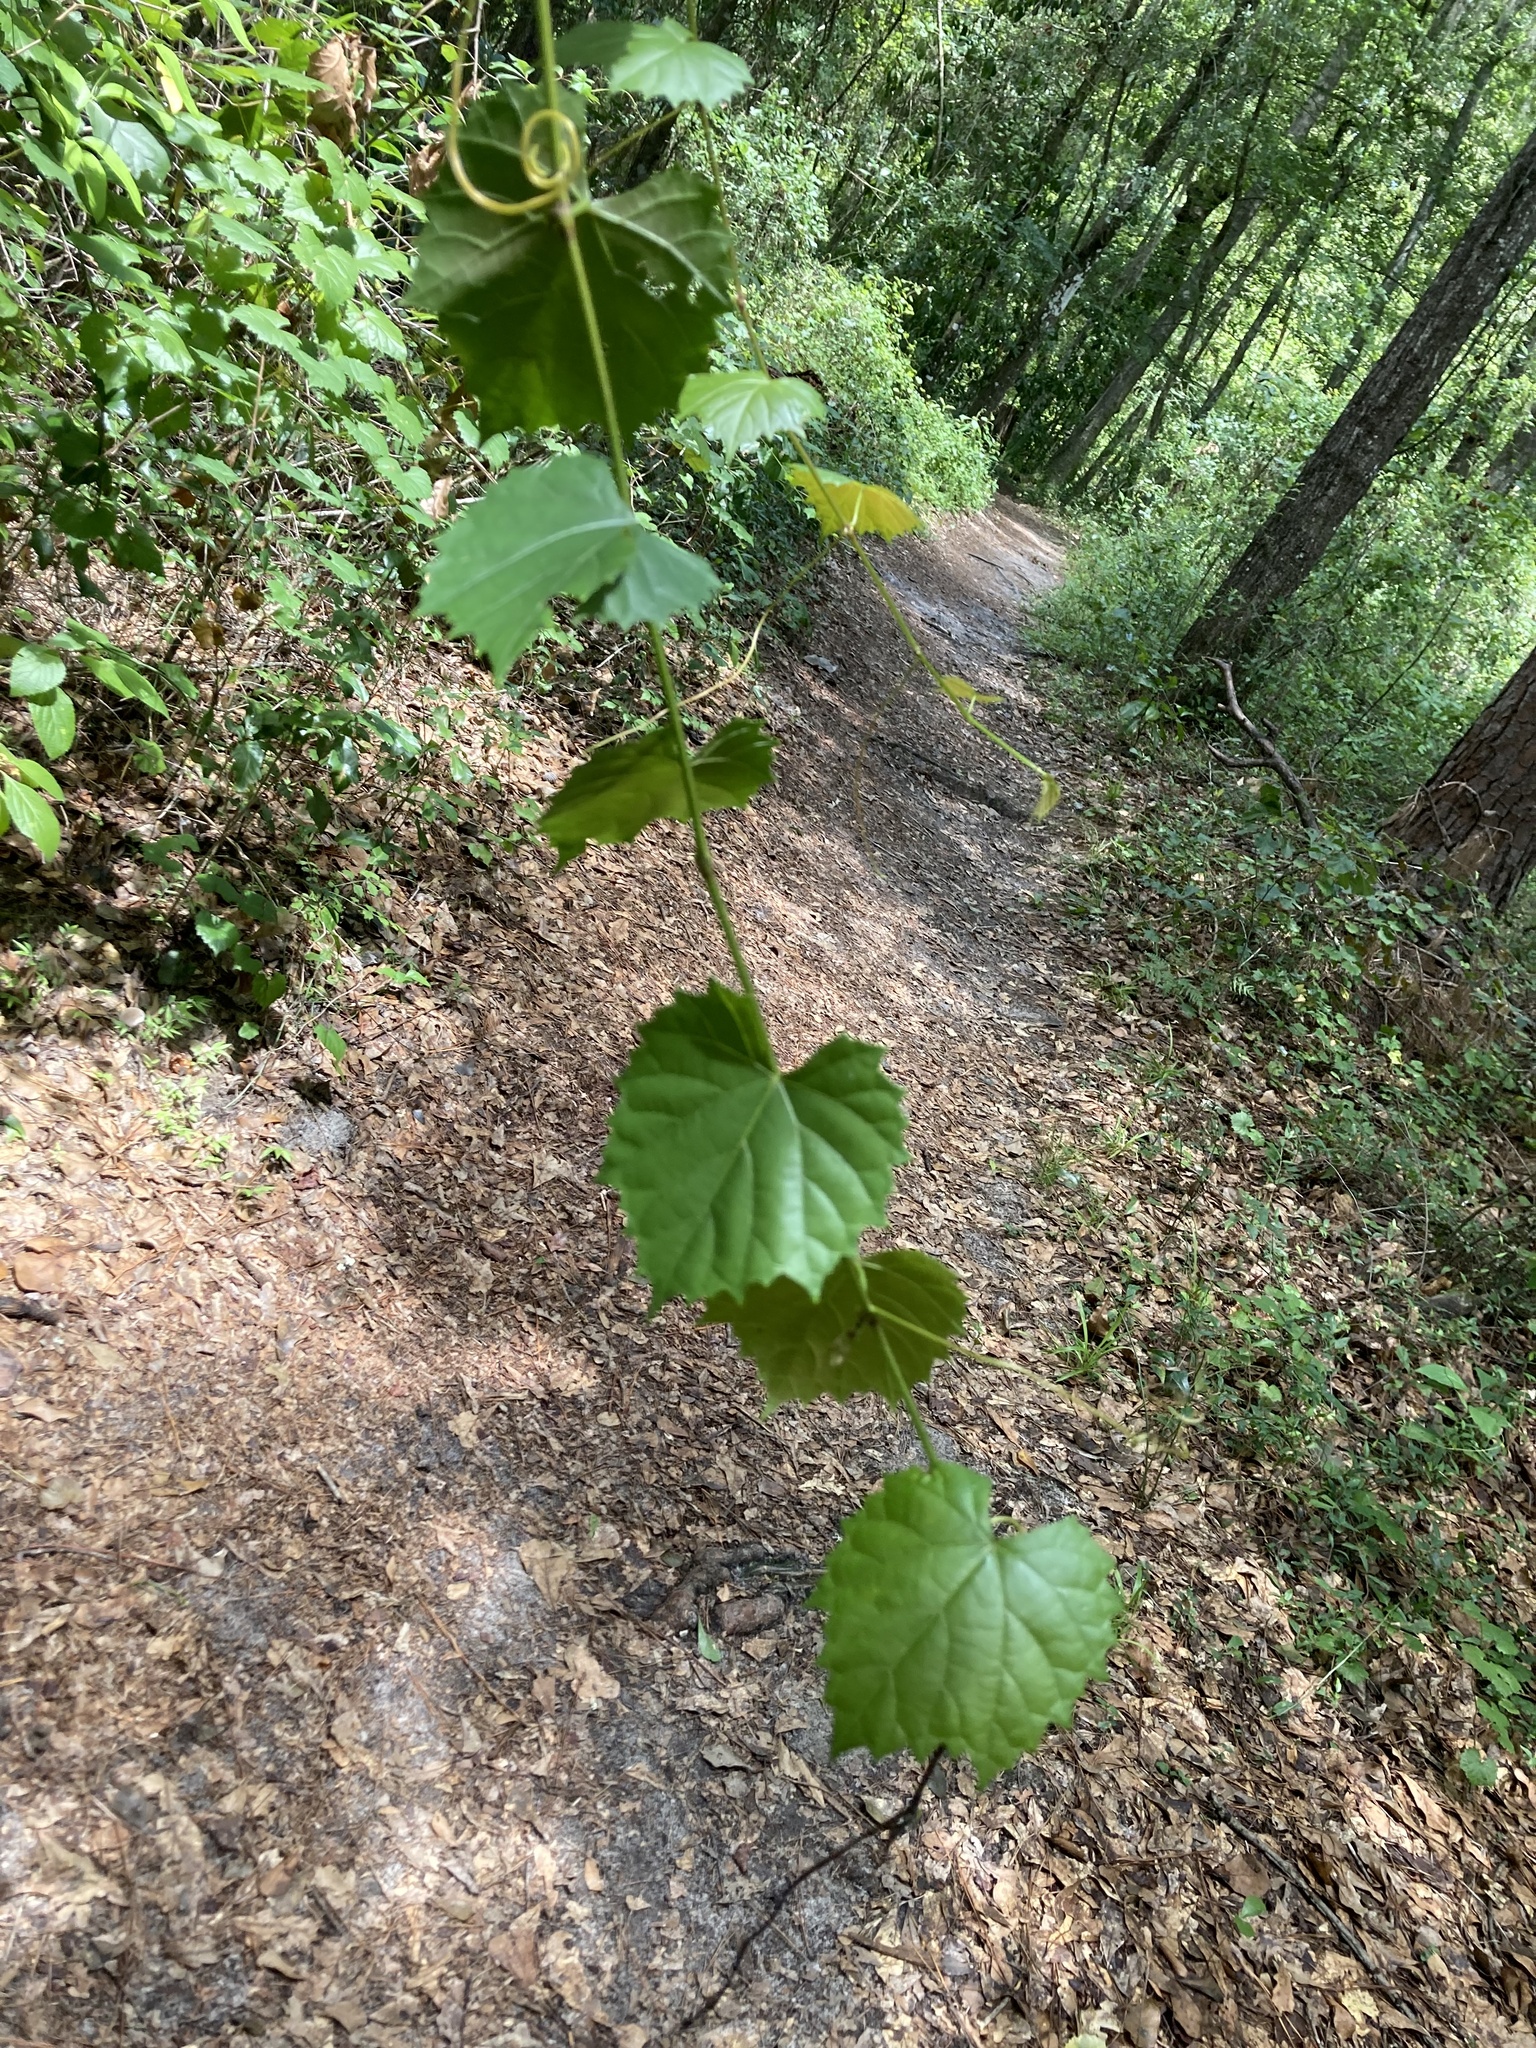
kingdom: Plantae
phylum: Tracheophyta
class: Magnoliopsida
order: Vitales
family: Vitaceae
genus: Vitis
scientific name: Vitis rotundifolia
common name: Muscadine grape
